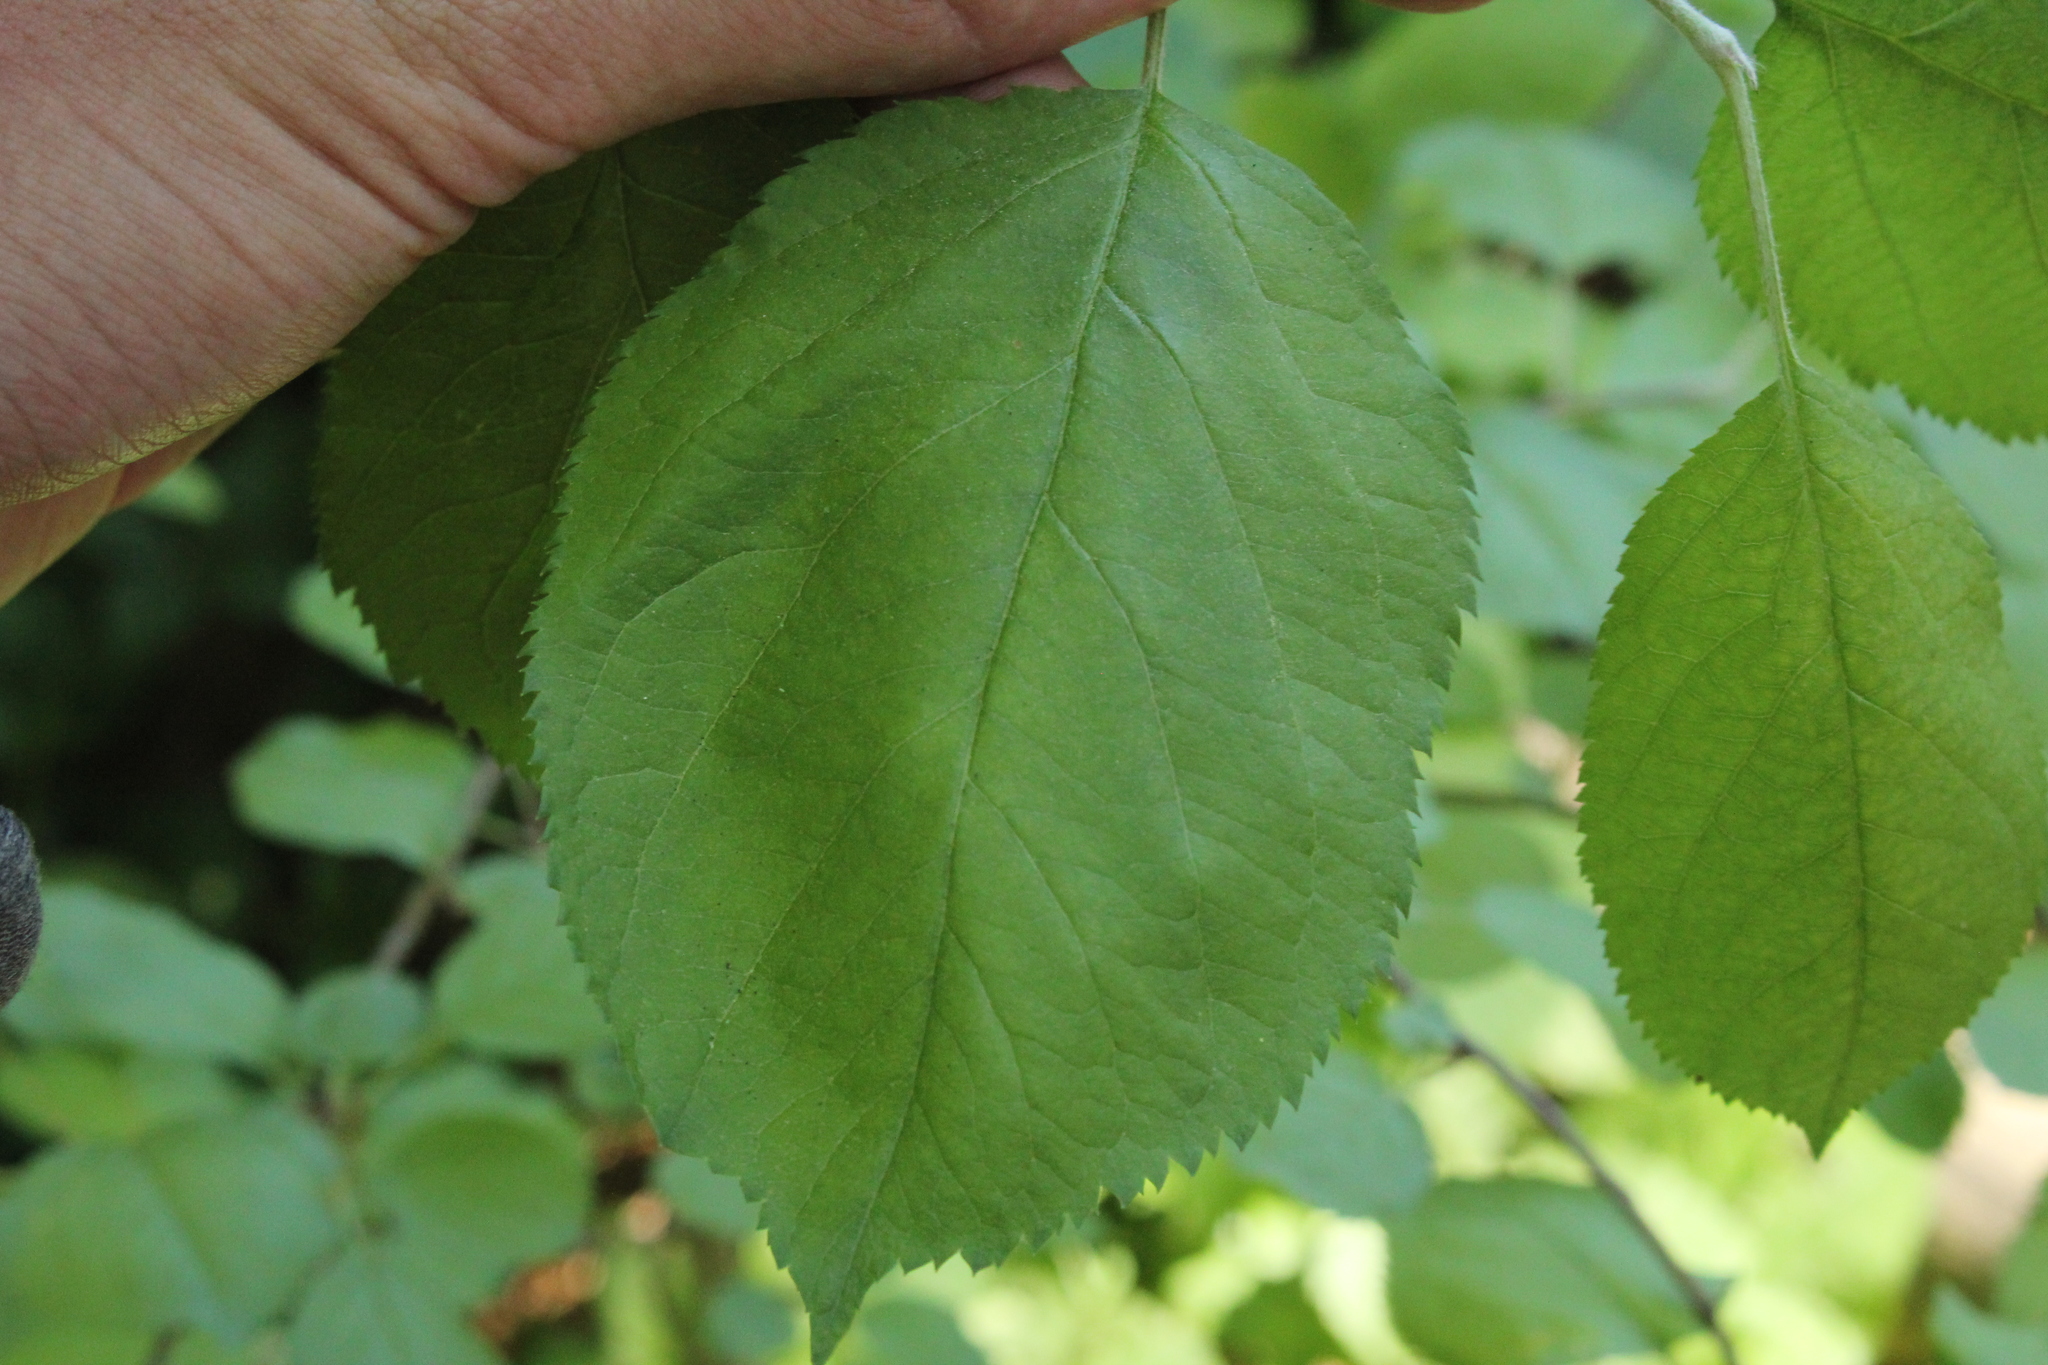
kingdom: Plantae
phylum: Tracheophyta
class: Magnoliopsida
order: Rosales
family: Rosaceae
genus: Malus
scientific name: Malus domestica
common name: Apple
